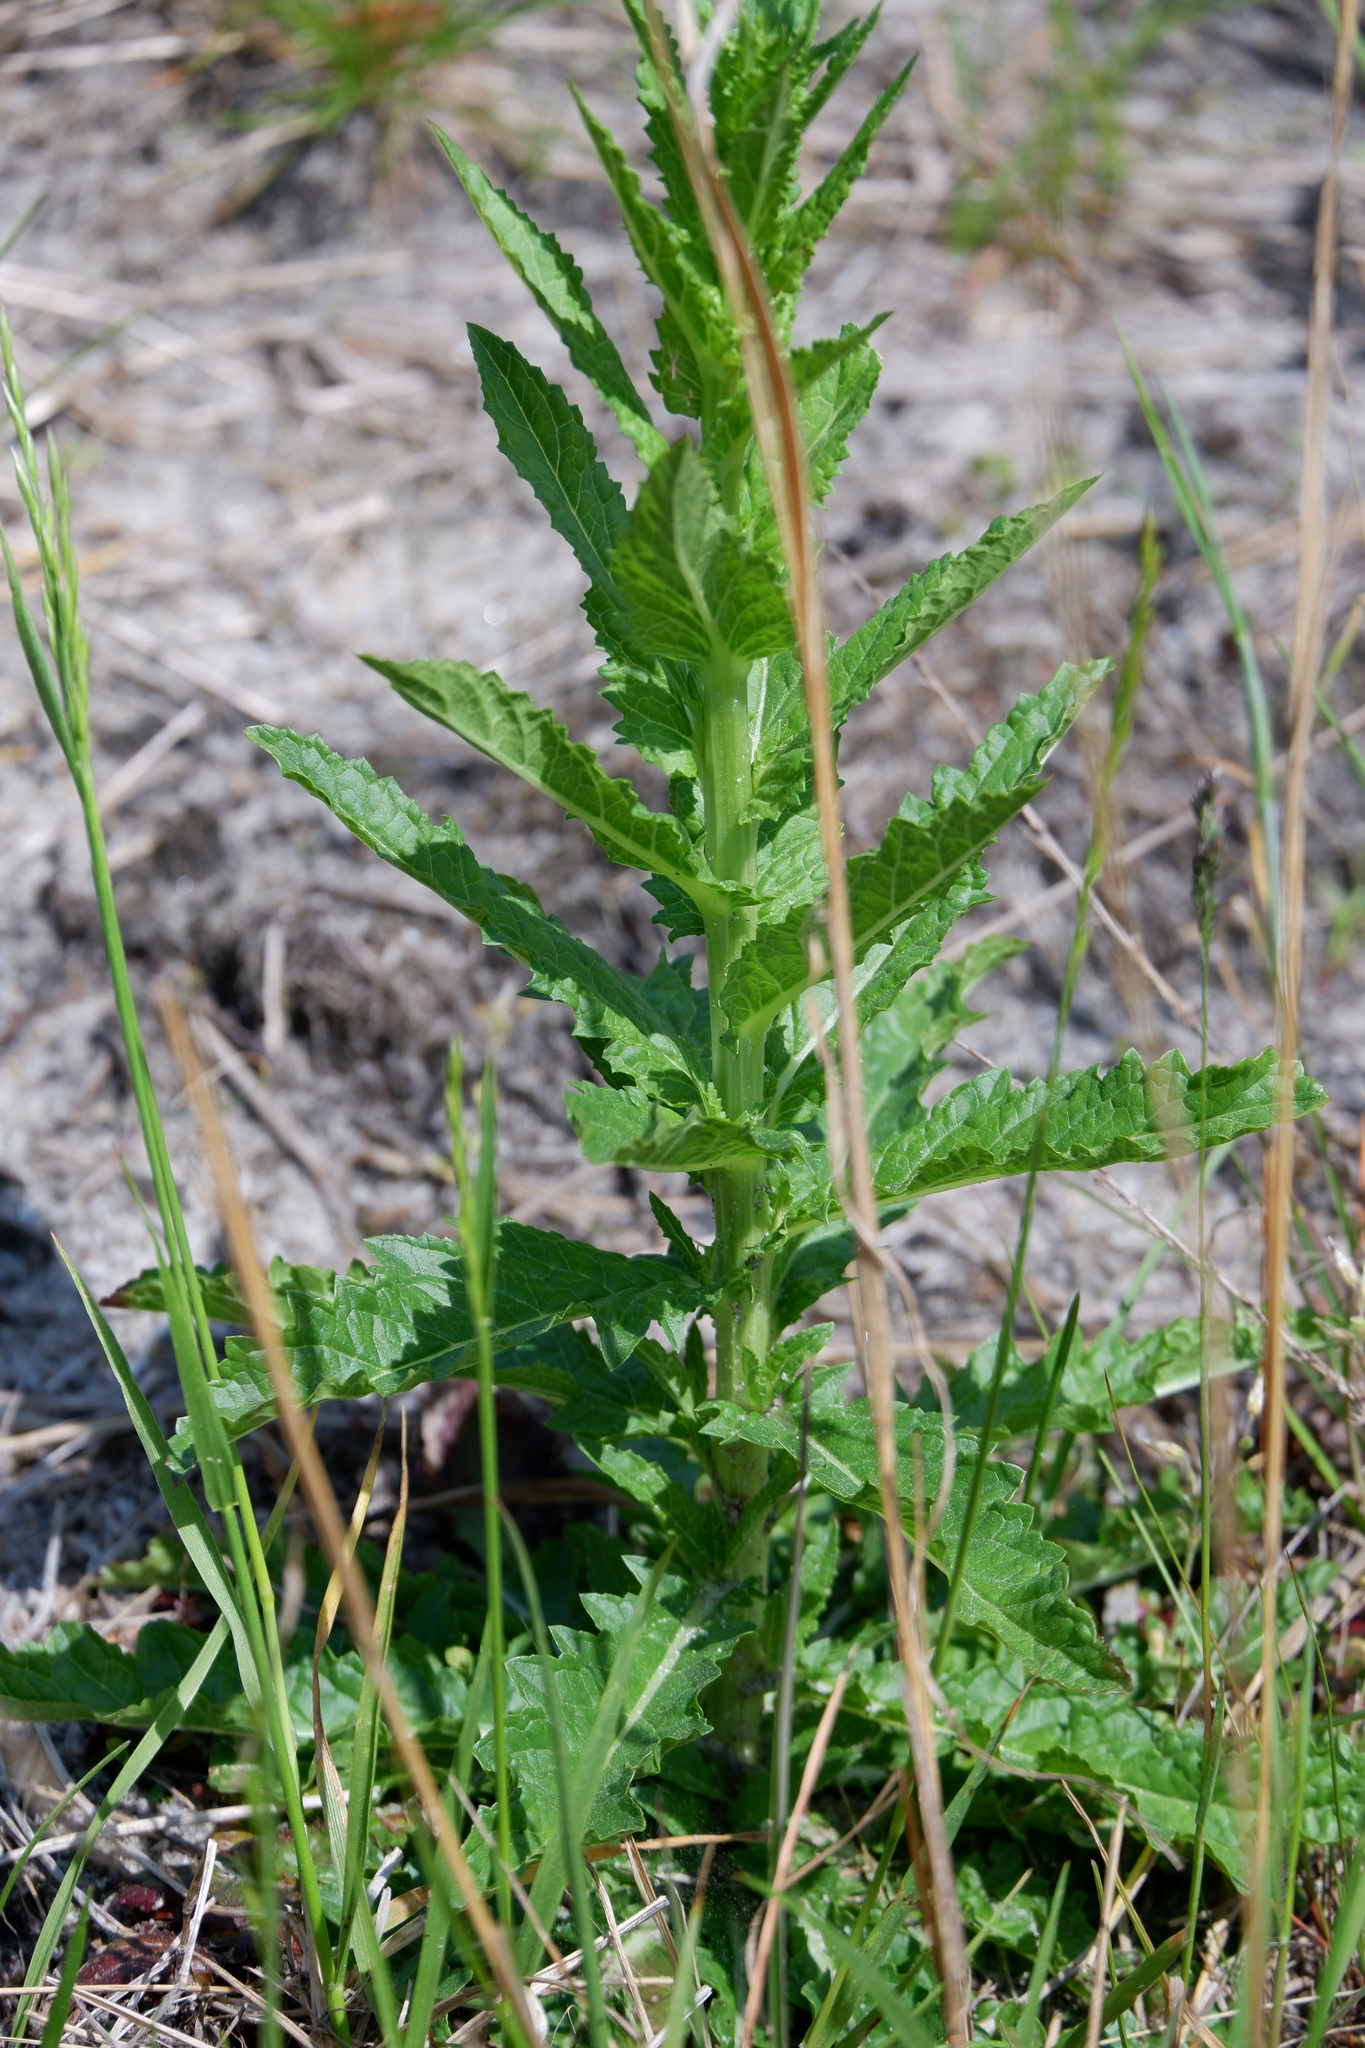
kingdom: Plantae
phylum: Tracheophyta
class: Magnoliopsida
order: Lamiales
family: Scrophulariaceae
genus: Verbascum
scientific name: Verbascum blattaria
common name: Moth mullein
